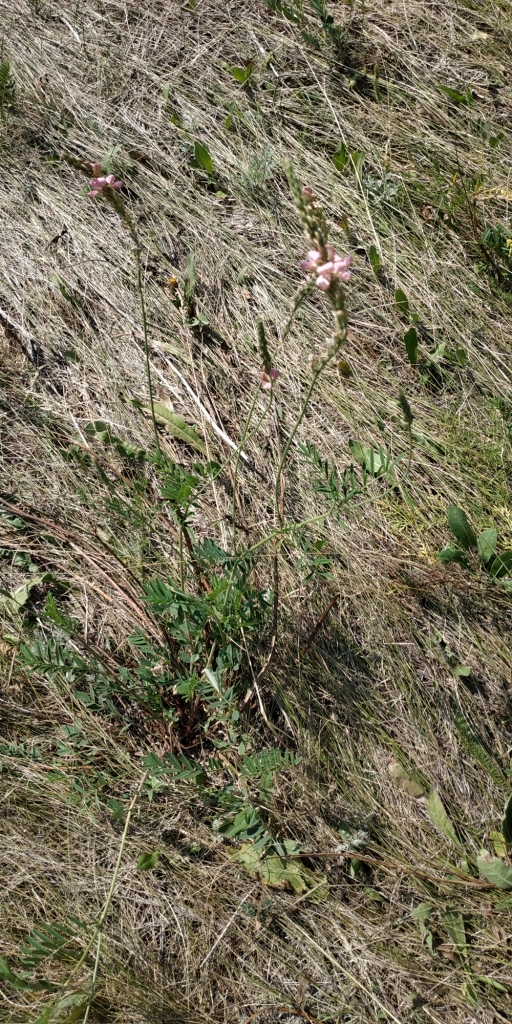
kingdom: Plantae
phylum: Tracheophyta
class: Magnoliopsida
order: Fabales
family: Fabaceae
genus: Onobrychis
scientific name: Onobrychis viciifolia
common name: Sainfoin
